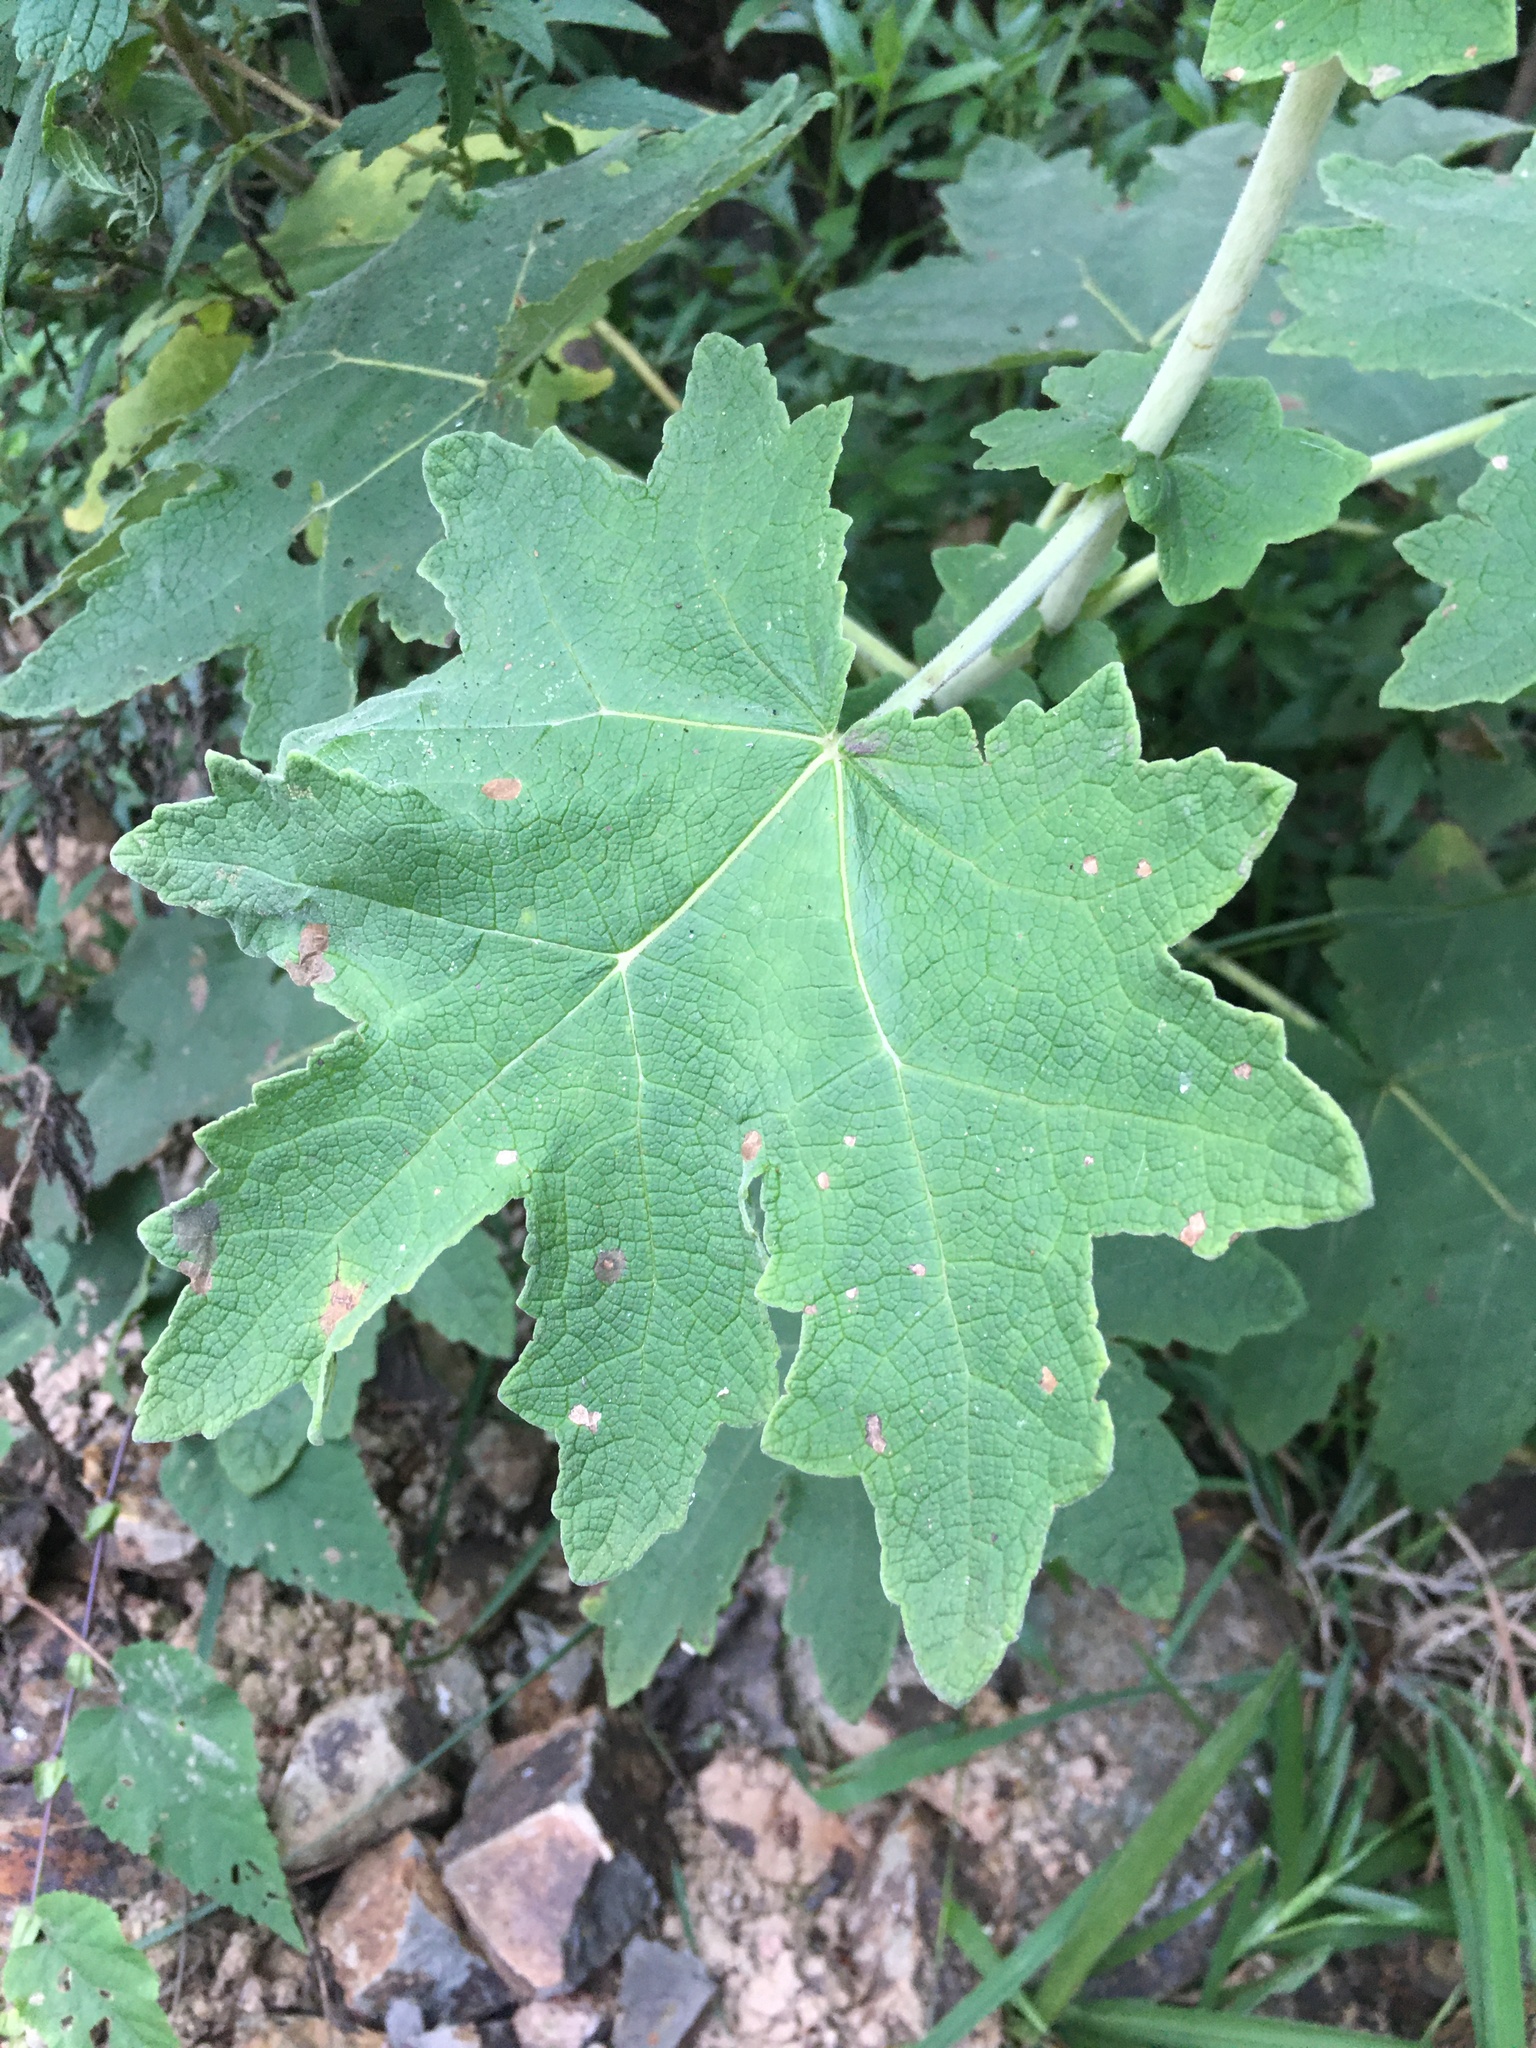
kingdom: Plantae
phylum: Tracheophyta
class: Magnoliopsida
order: Asterales
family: Asteraceae
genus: Jungia
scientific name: Jungia sellowii
